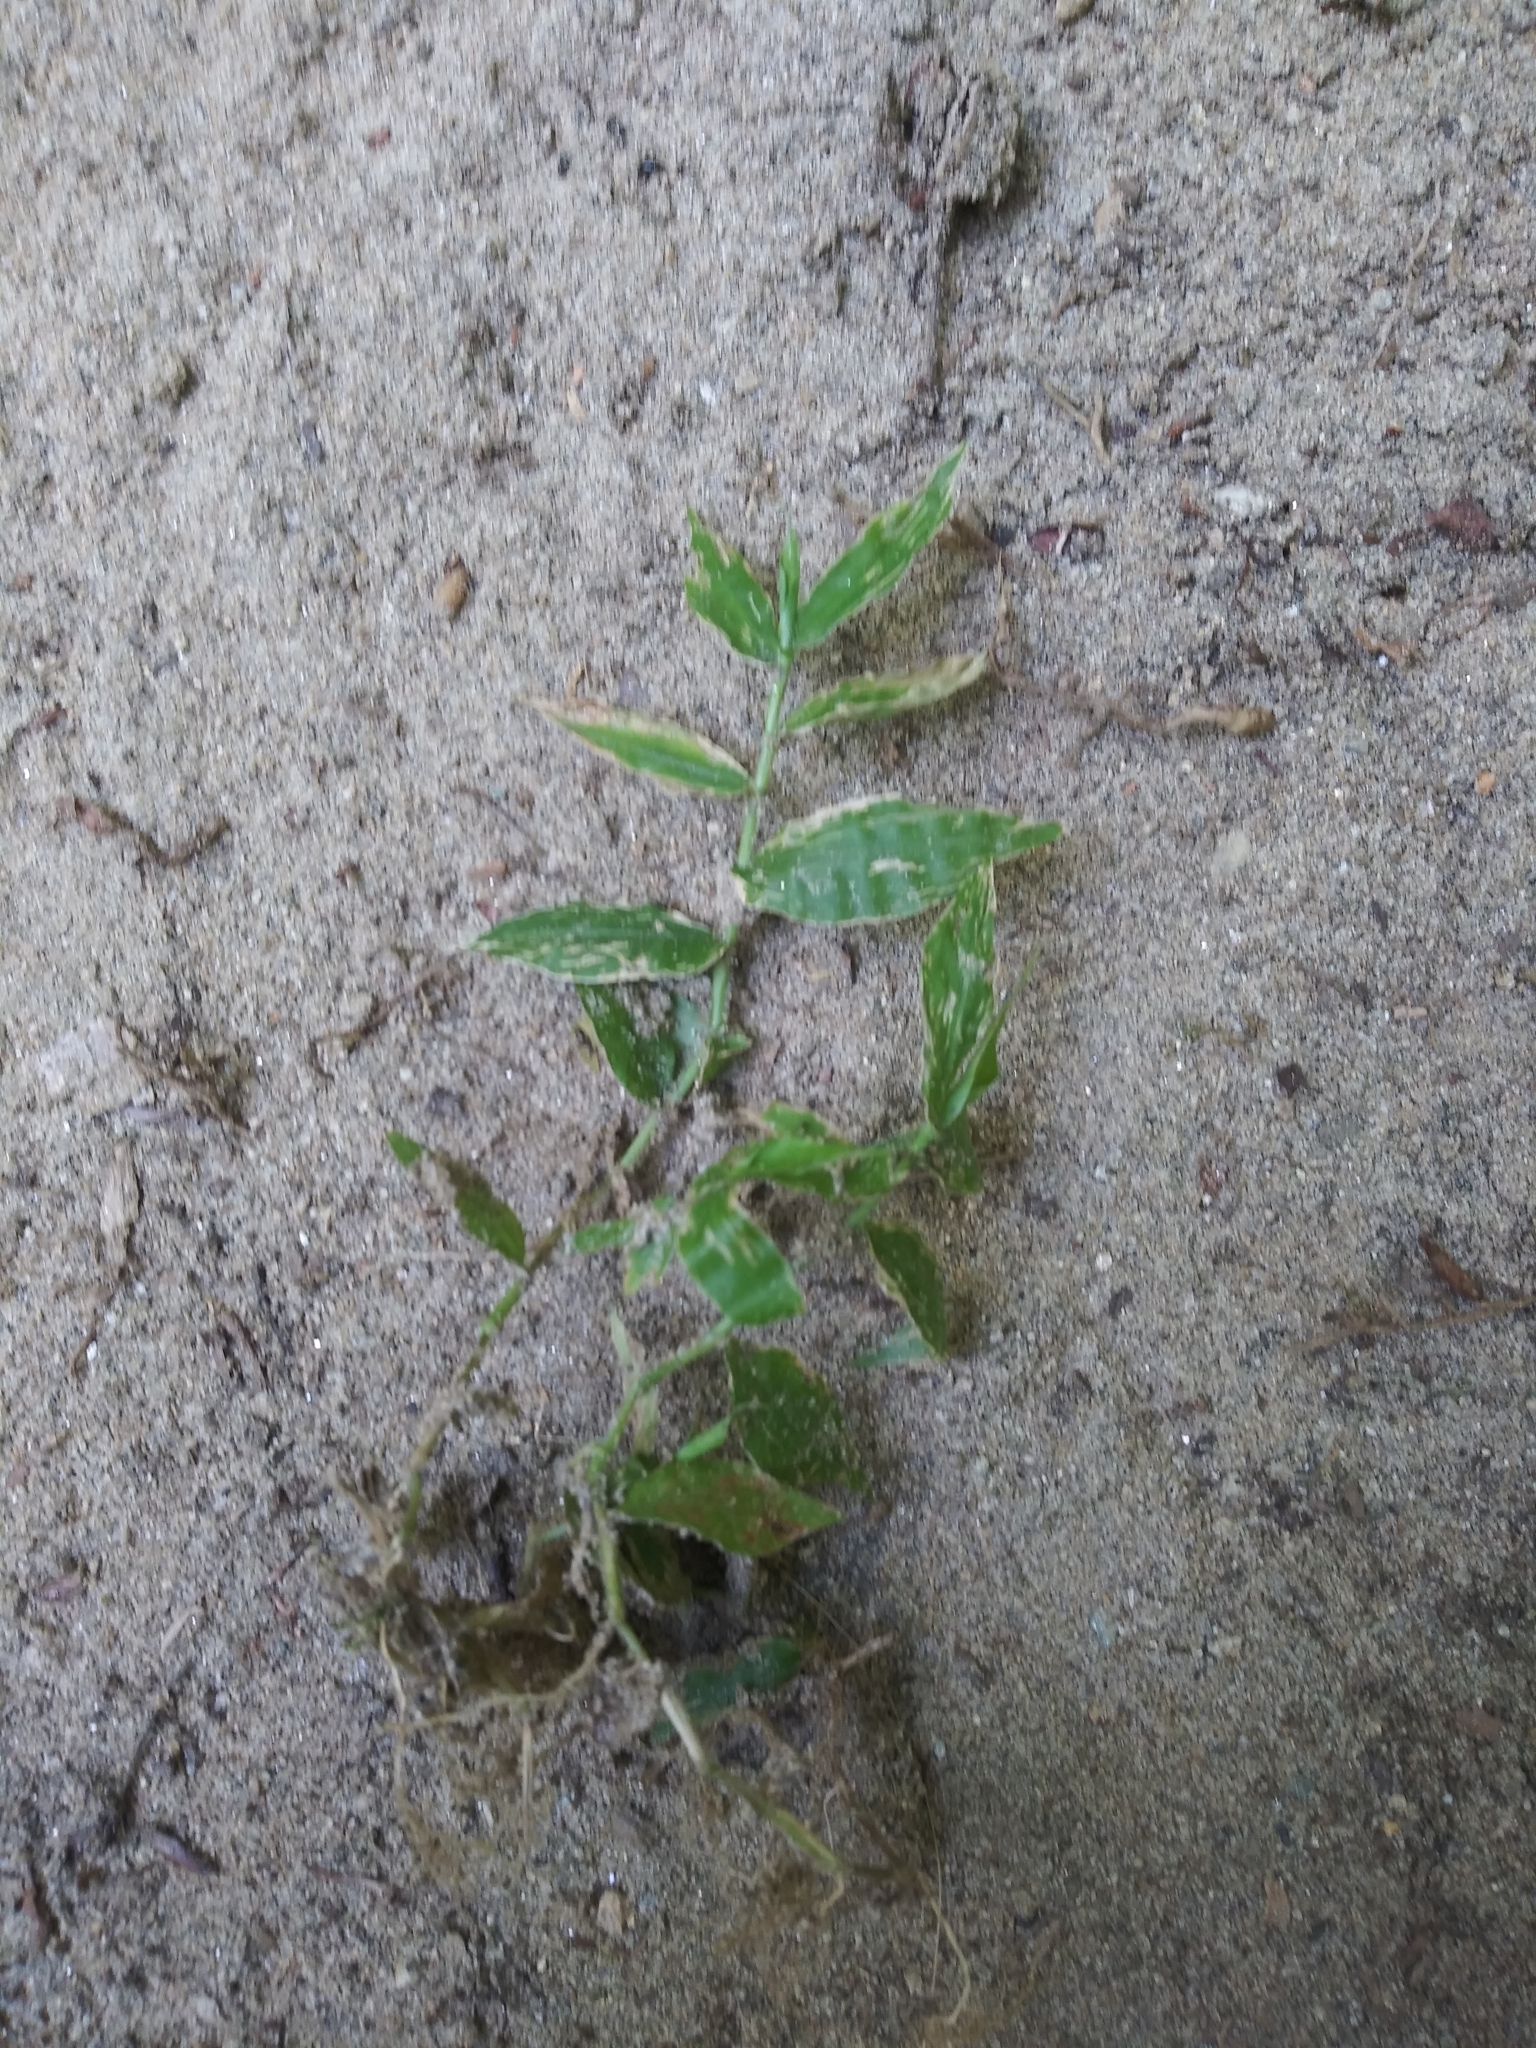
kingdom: Plantae
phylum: Tracheophyta
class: Liliopsida
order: Poales
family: Poaceae
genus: Oplismenus
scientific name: Oplismenus undulatifolius
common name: Wavyleaf basketgrass
